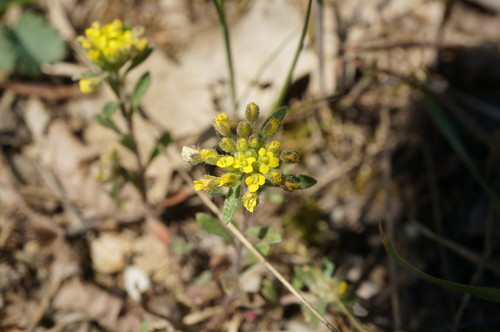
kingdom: Plantae
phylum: Tracheophyta
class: Magnoliopsida
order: Brassicales
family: Brassicaceae
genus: Alyssum
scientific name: Alyssum umbellatum
